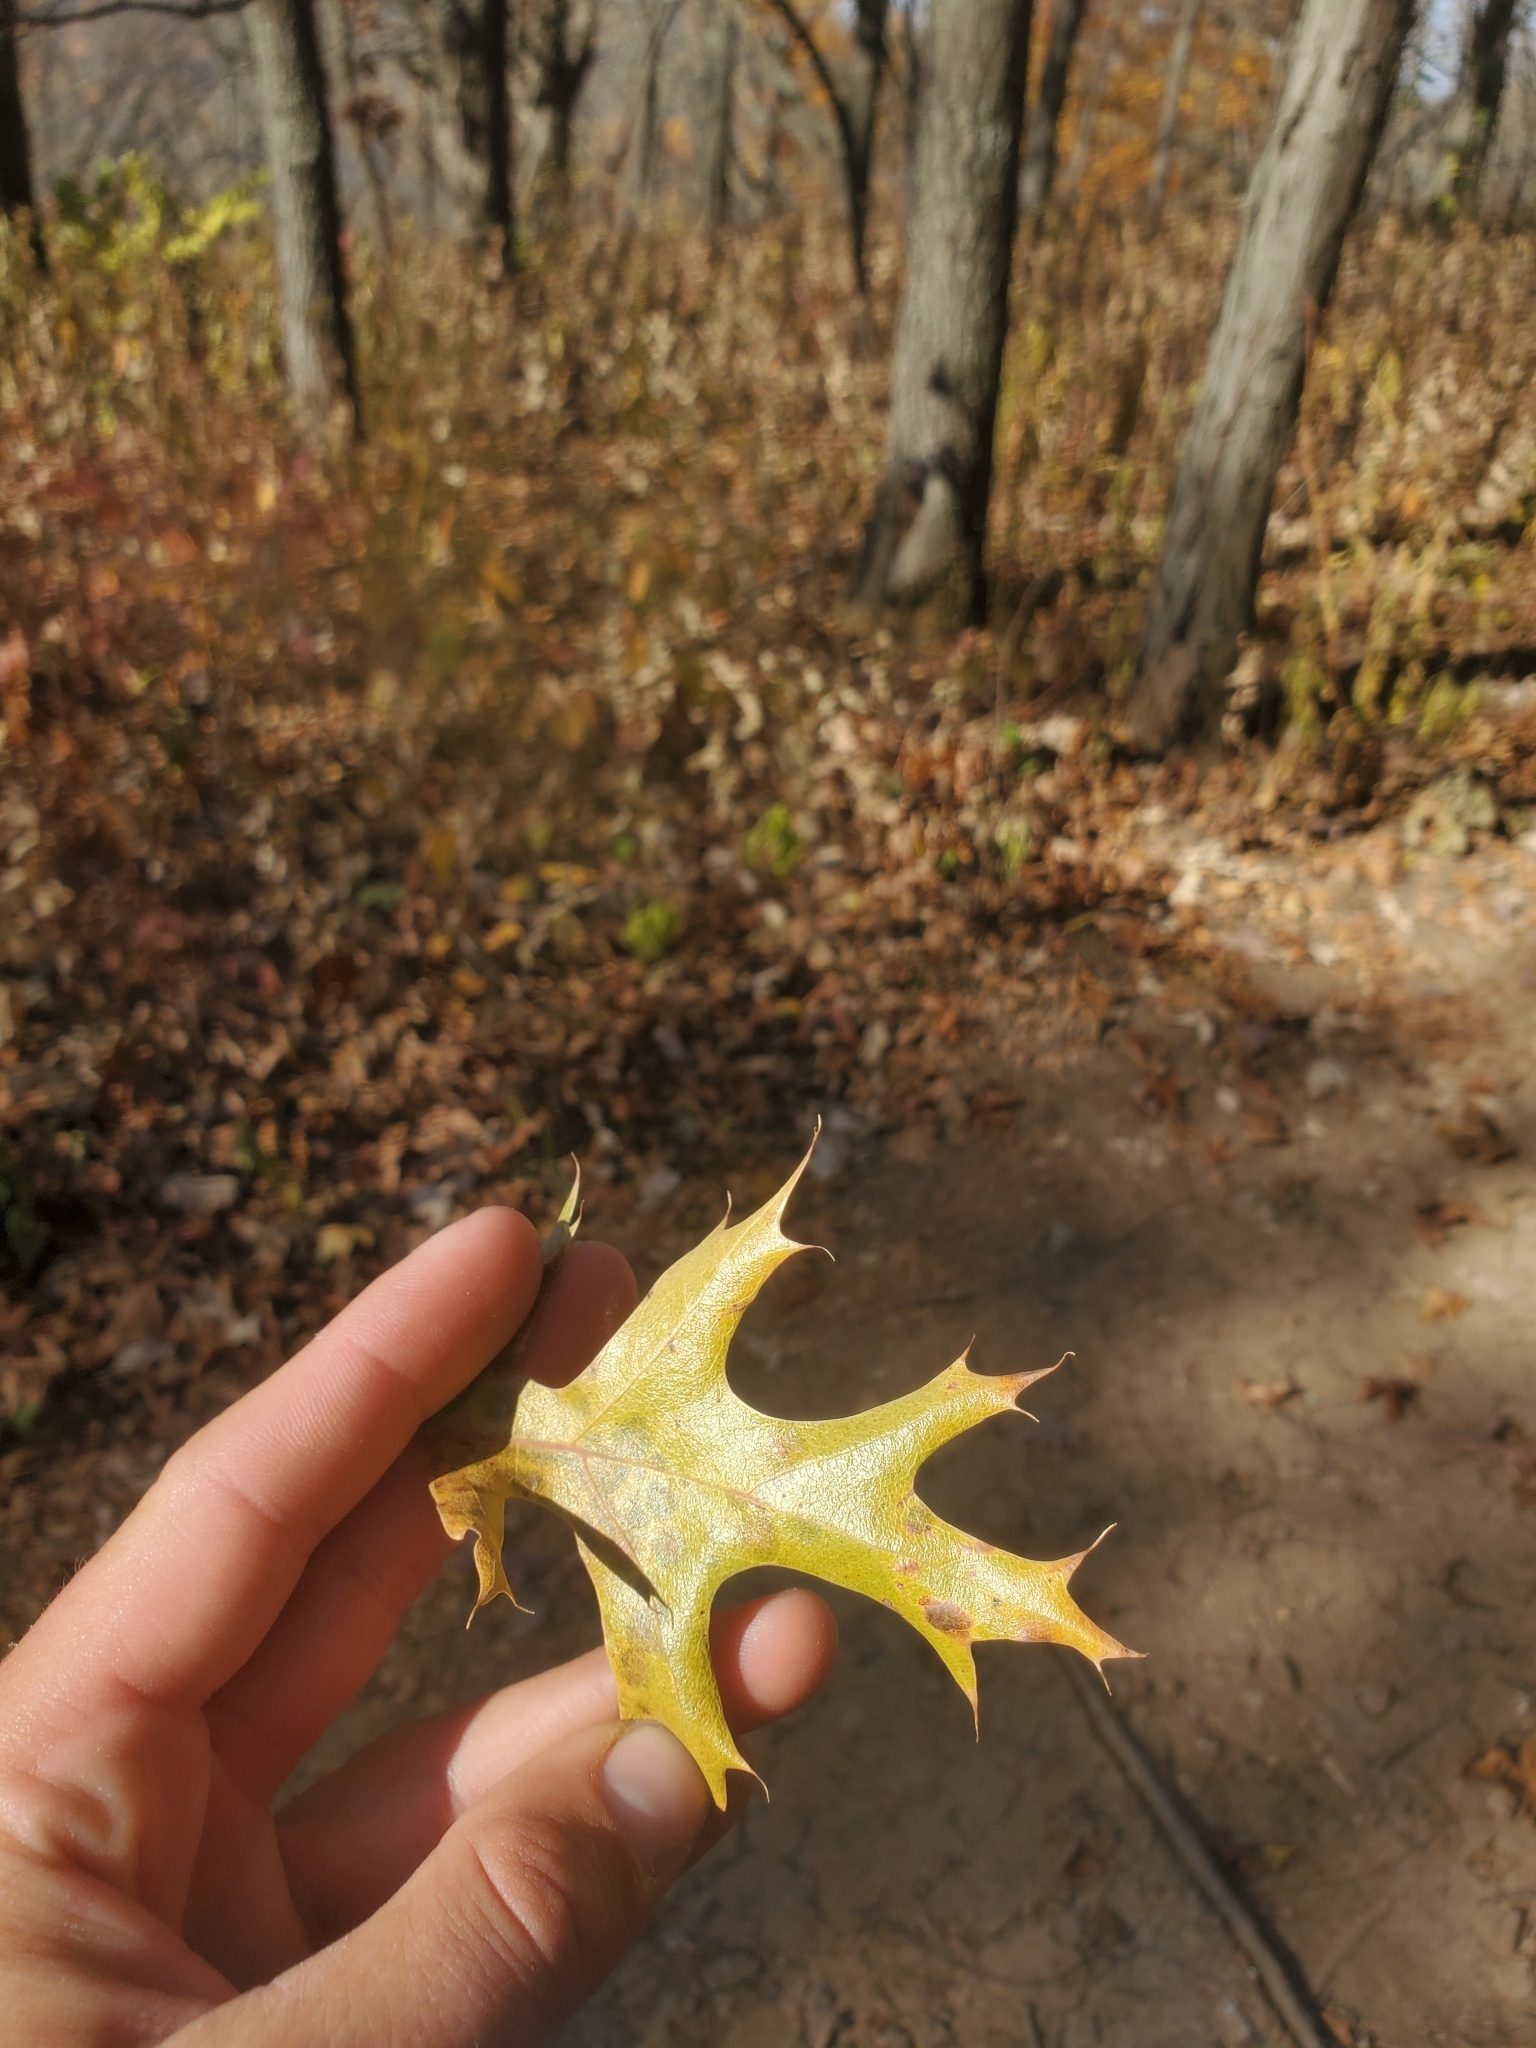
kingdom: Plantae
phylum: Tracheophyta
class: Polypodiopsida
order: Polypodiales
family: Pteridaceae
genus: Adiantum
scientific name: Adiantum pedatum
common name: Five-finger fern
